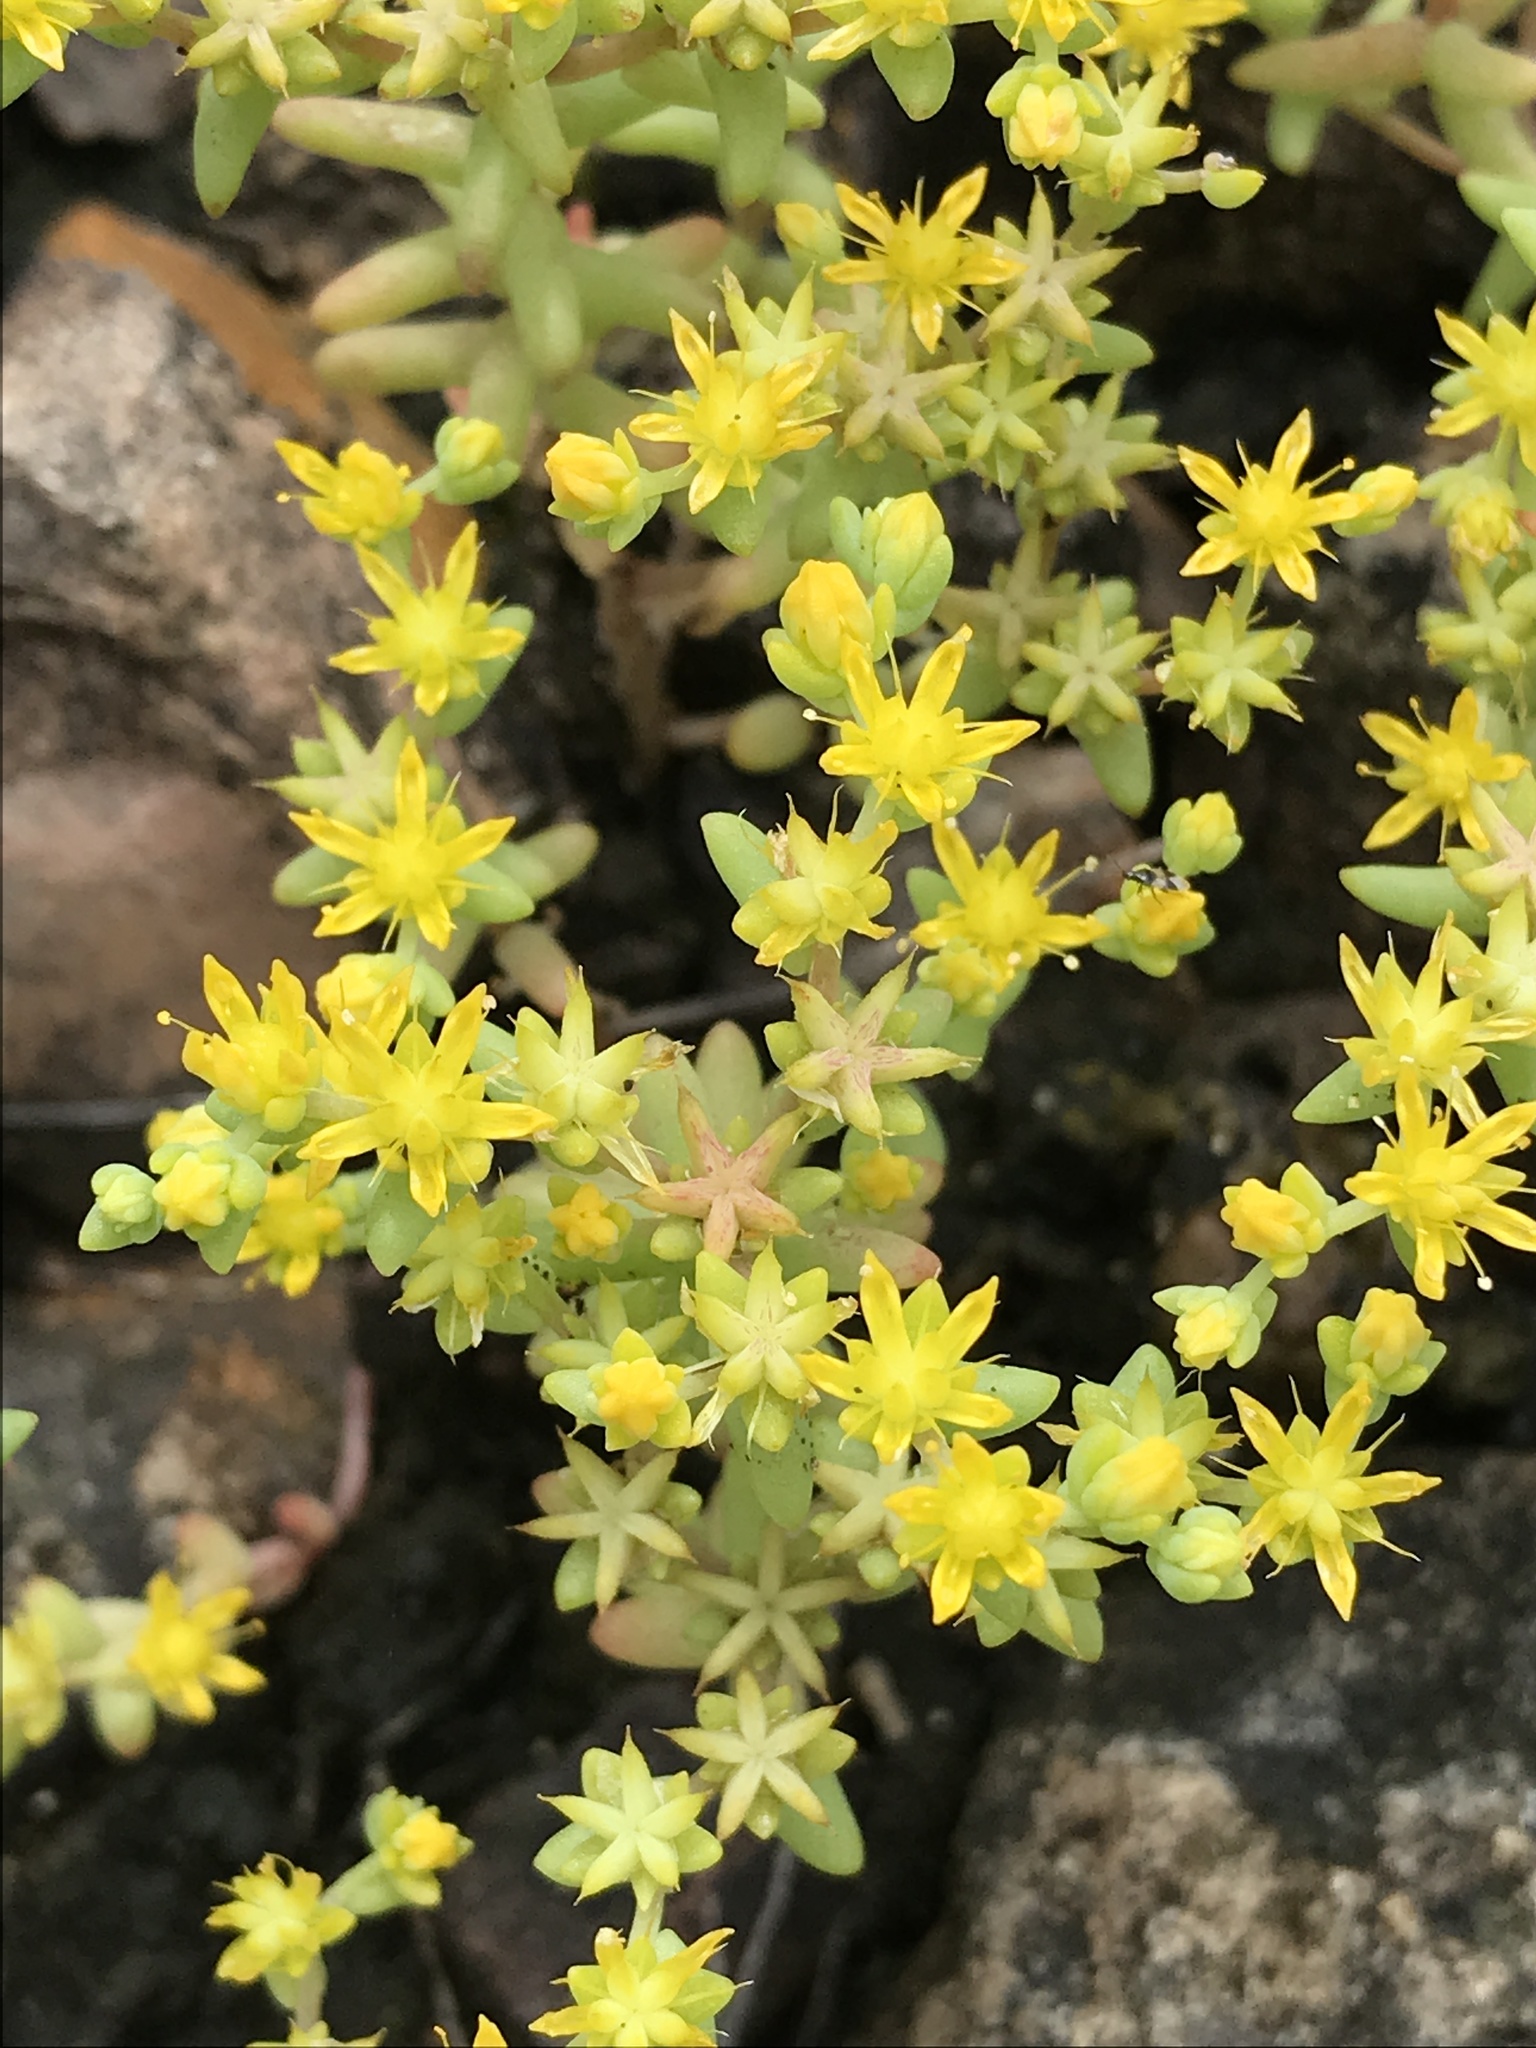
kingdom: Plantae
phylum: Tracheophyta
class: Magnoliopsida
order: Saxifragales
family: Crassulaceae
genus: Sedum
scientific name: Sedum nuttallii
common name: Yellow stonecrop
